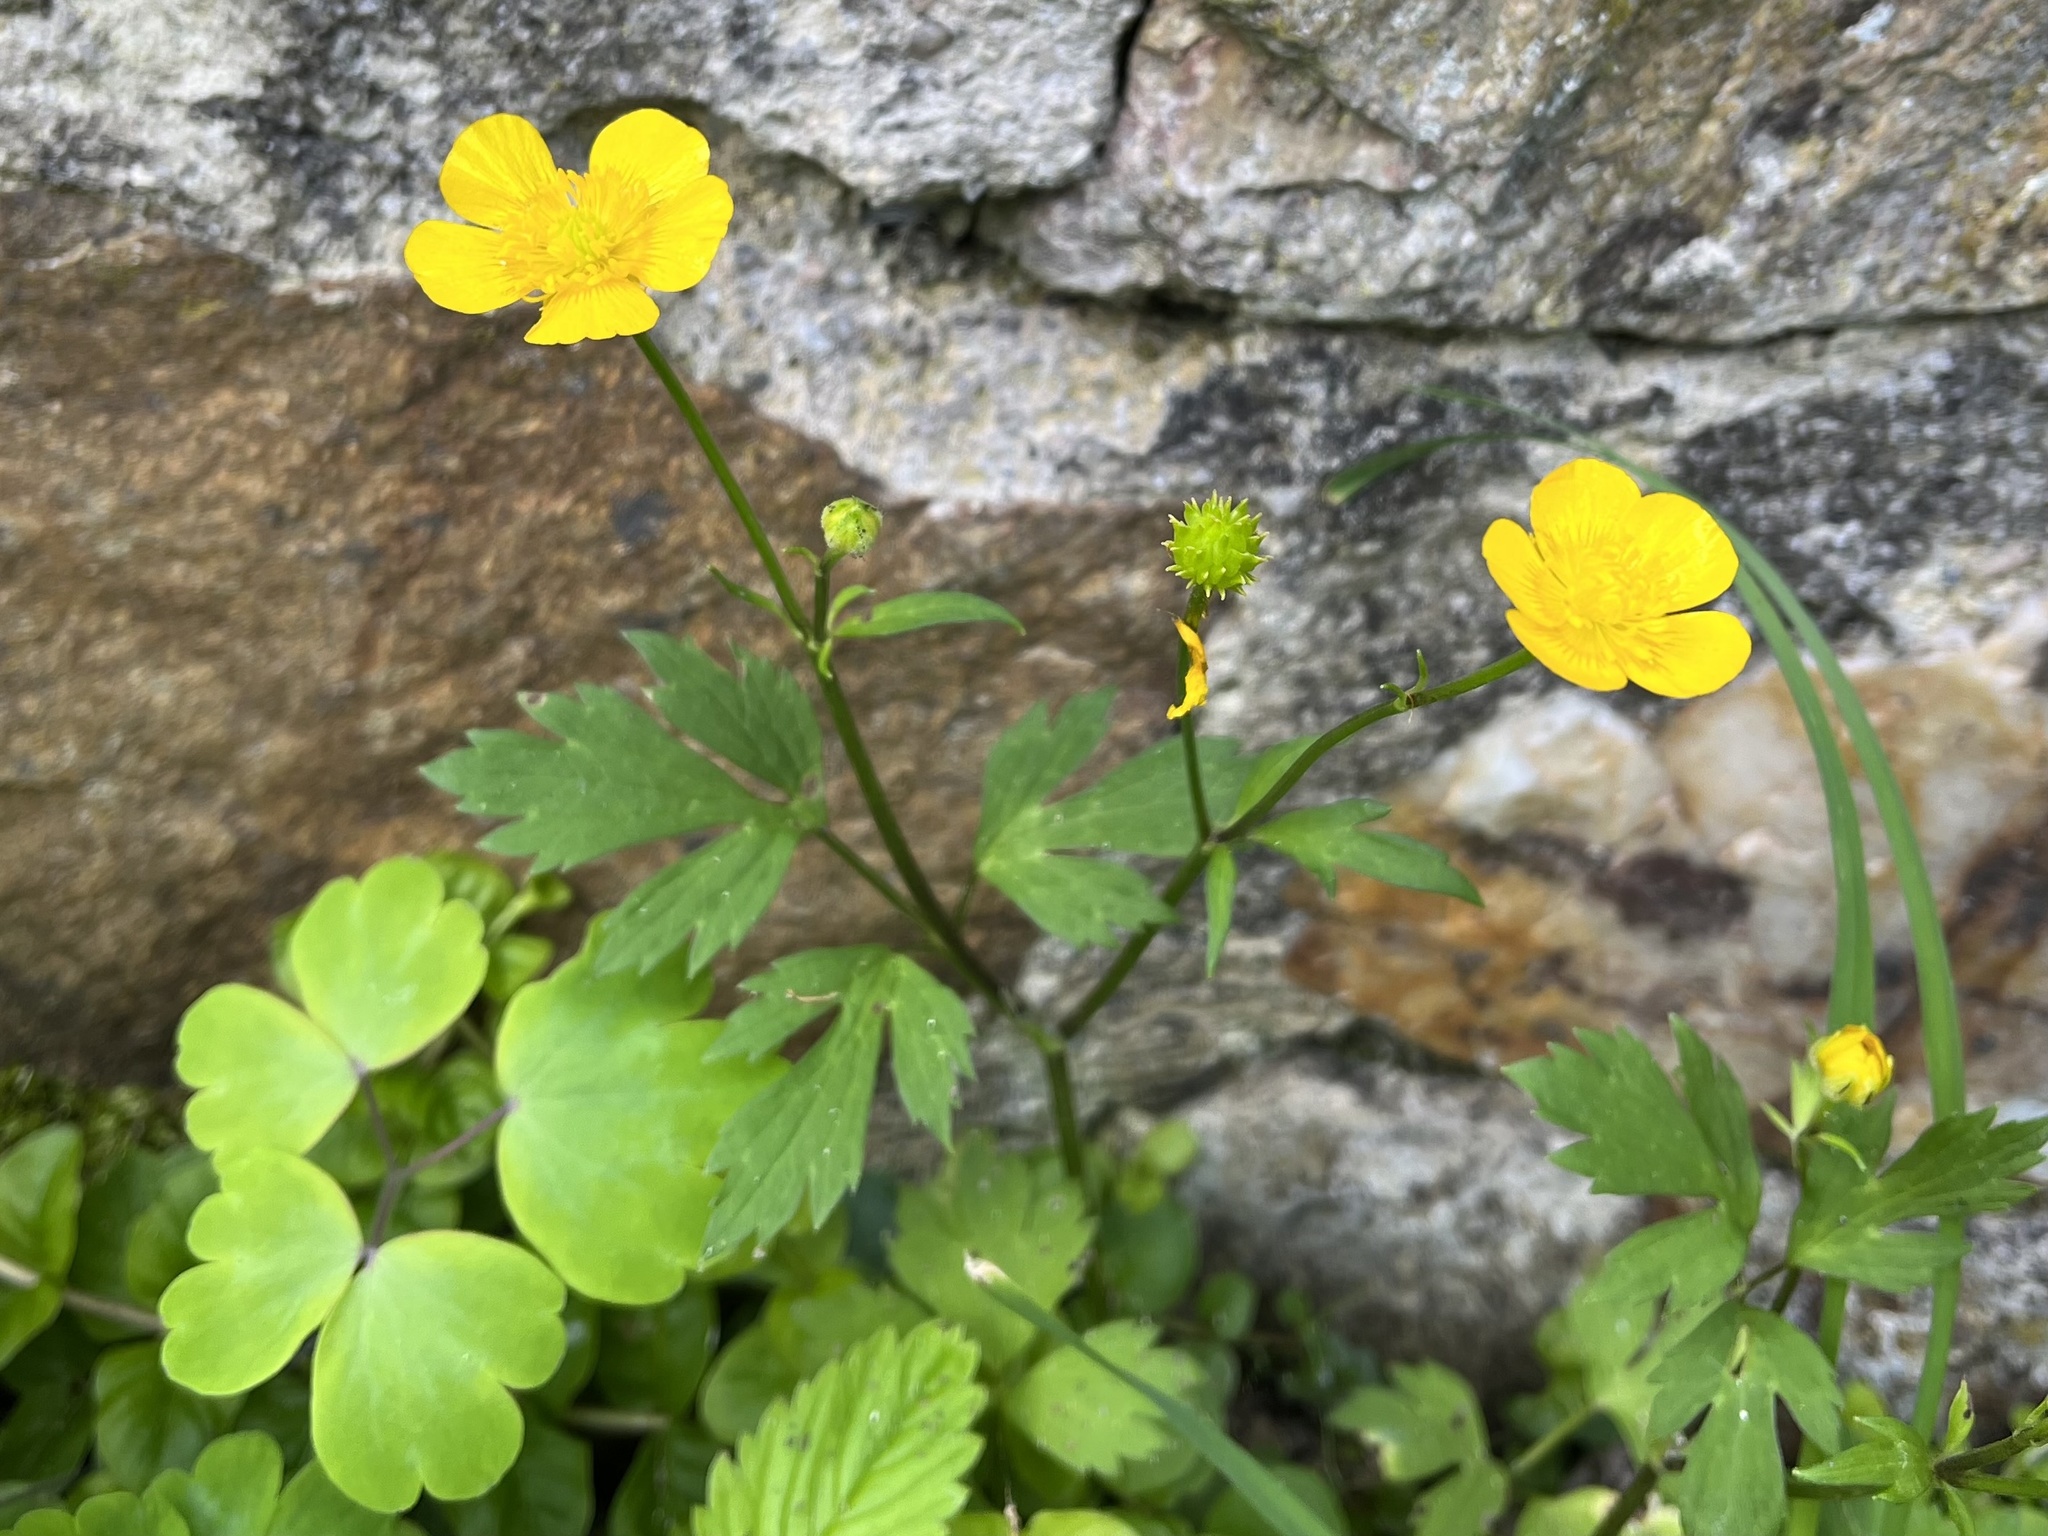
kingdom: Plantae
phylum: Tracheophyta
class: Magnoliopsida
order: Ranunculales
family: Ranunculaceae
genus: Ranunculus
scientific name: Ranunculus repens
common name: Creeping buttercup
